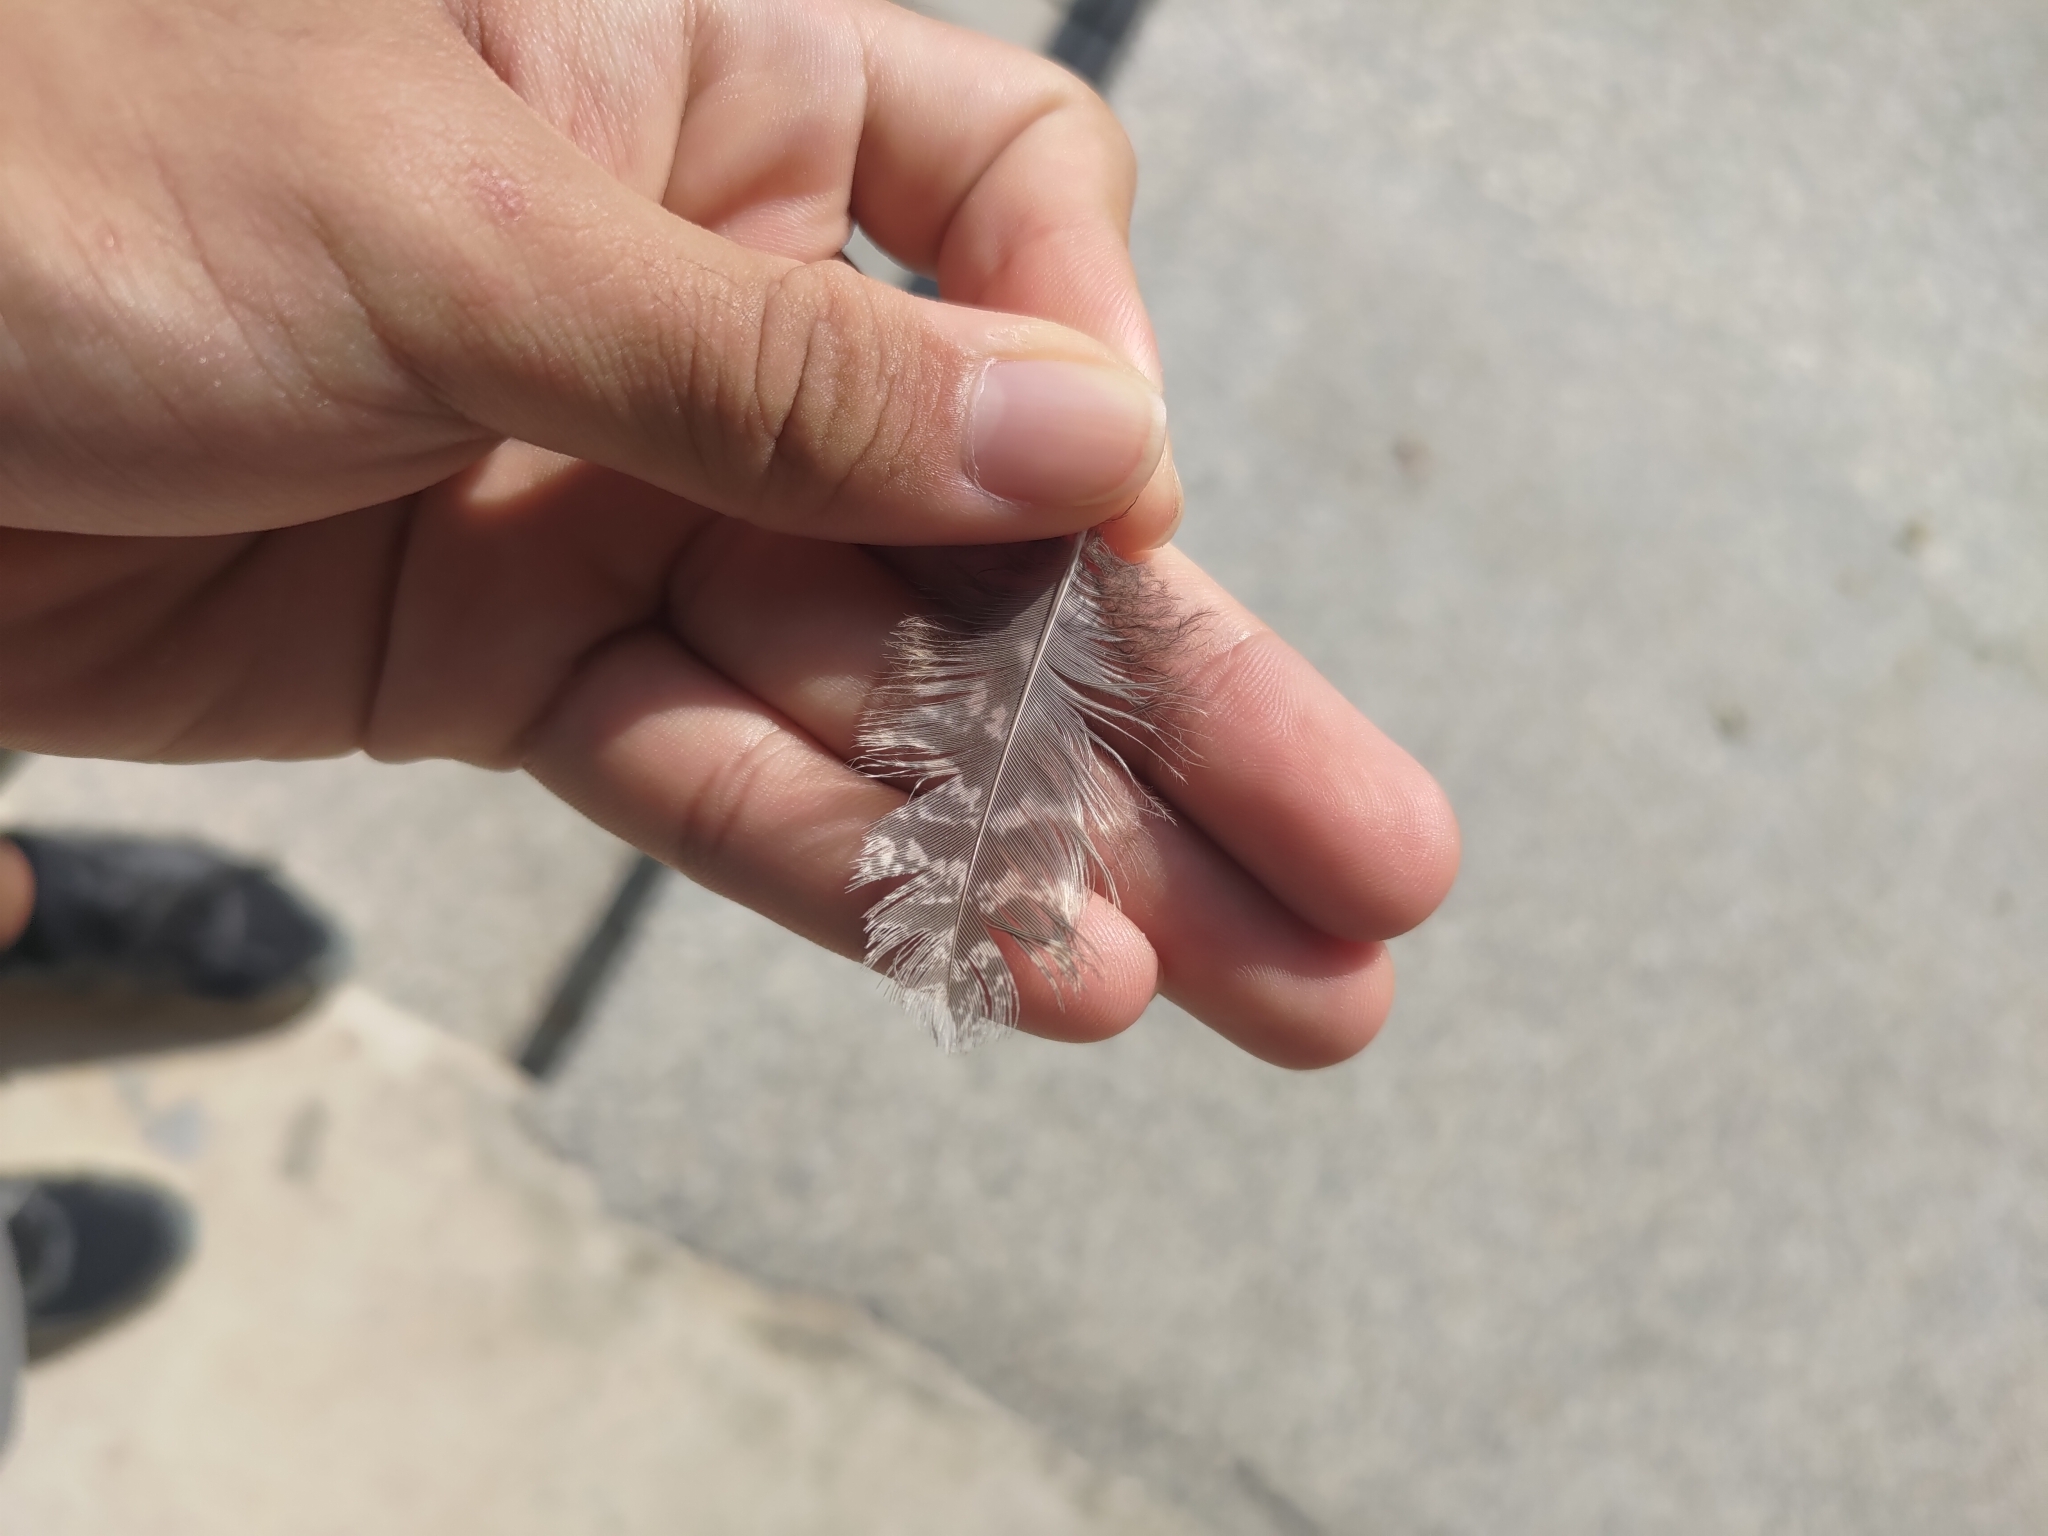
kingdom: Animalia
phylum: Chordata
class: Aves
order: Caprimulgiformes
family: Caprimulgidae
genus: Caprimulgus
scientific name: Caprimulgus affinis
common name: Savanna nightjar
